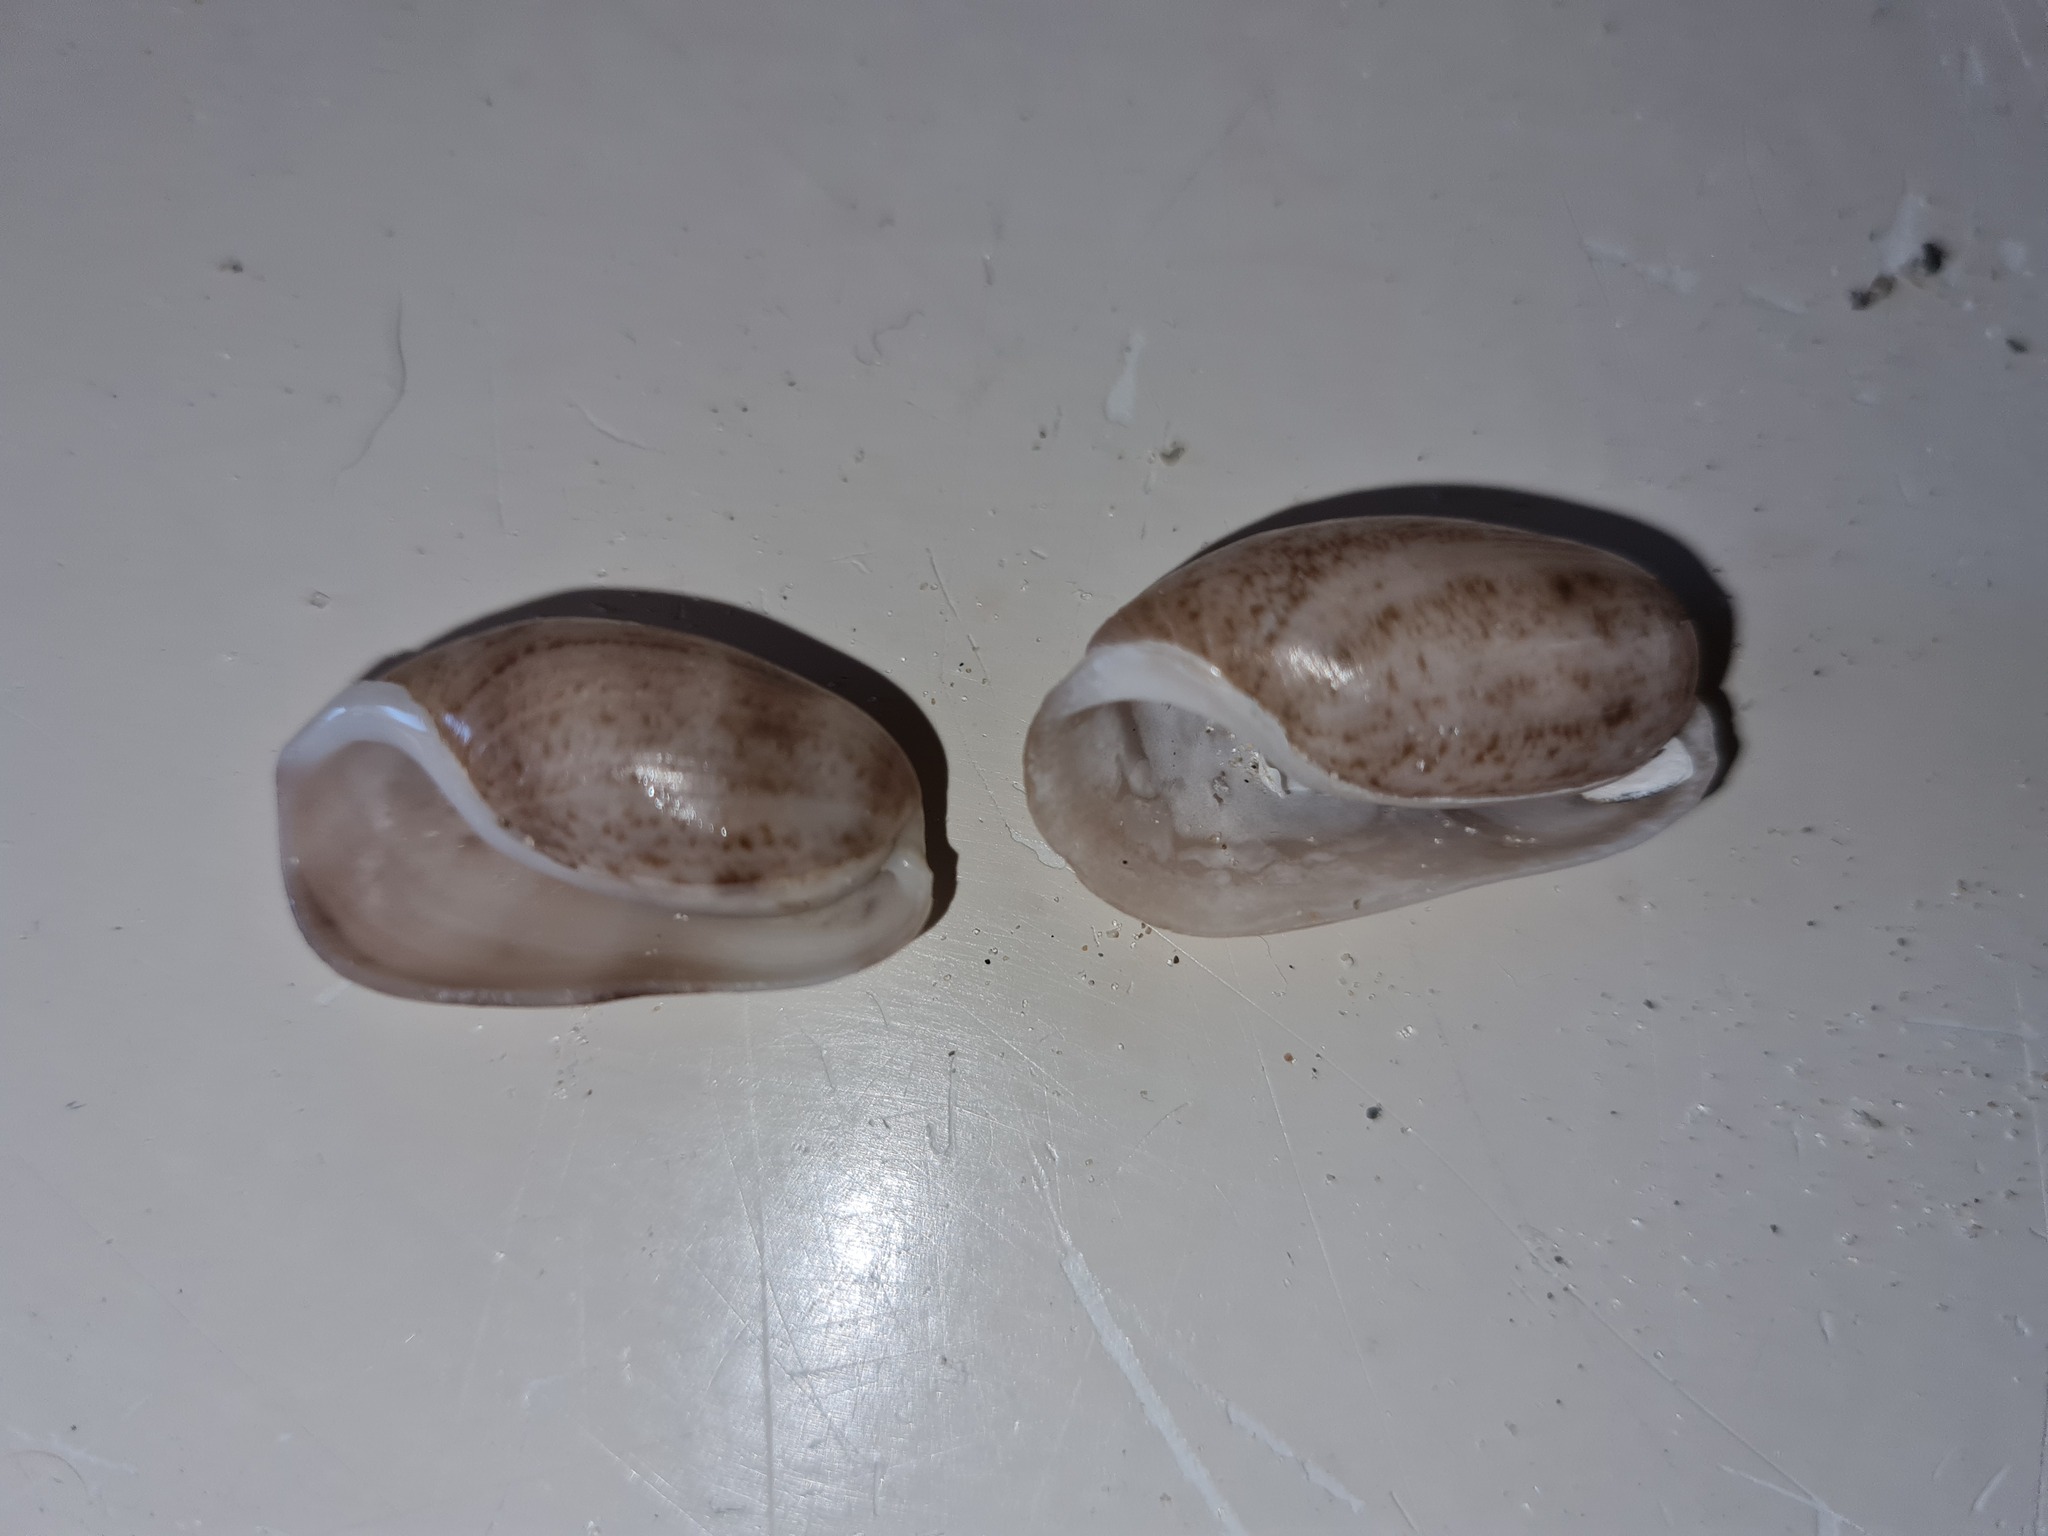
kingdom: Animalia
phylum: Mollusca
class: Gastropoda
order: Cephalaspidea
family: Bullidae
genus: Bulla
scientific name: Bulla occidentalis
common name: Common west-indian bubble
